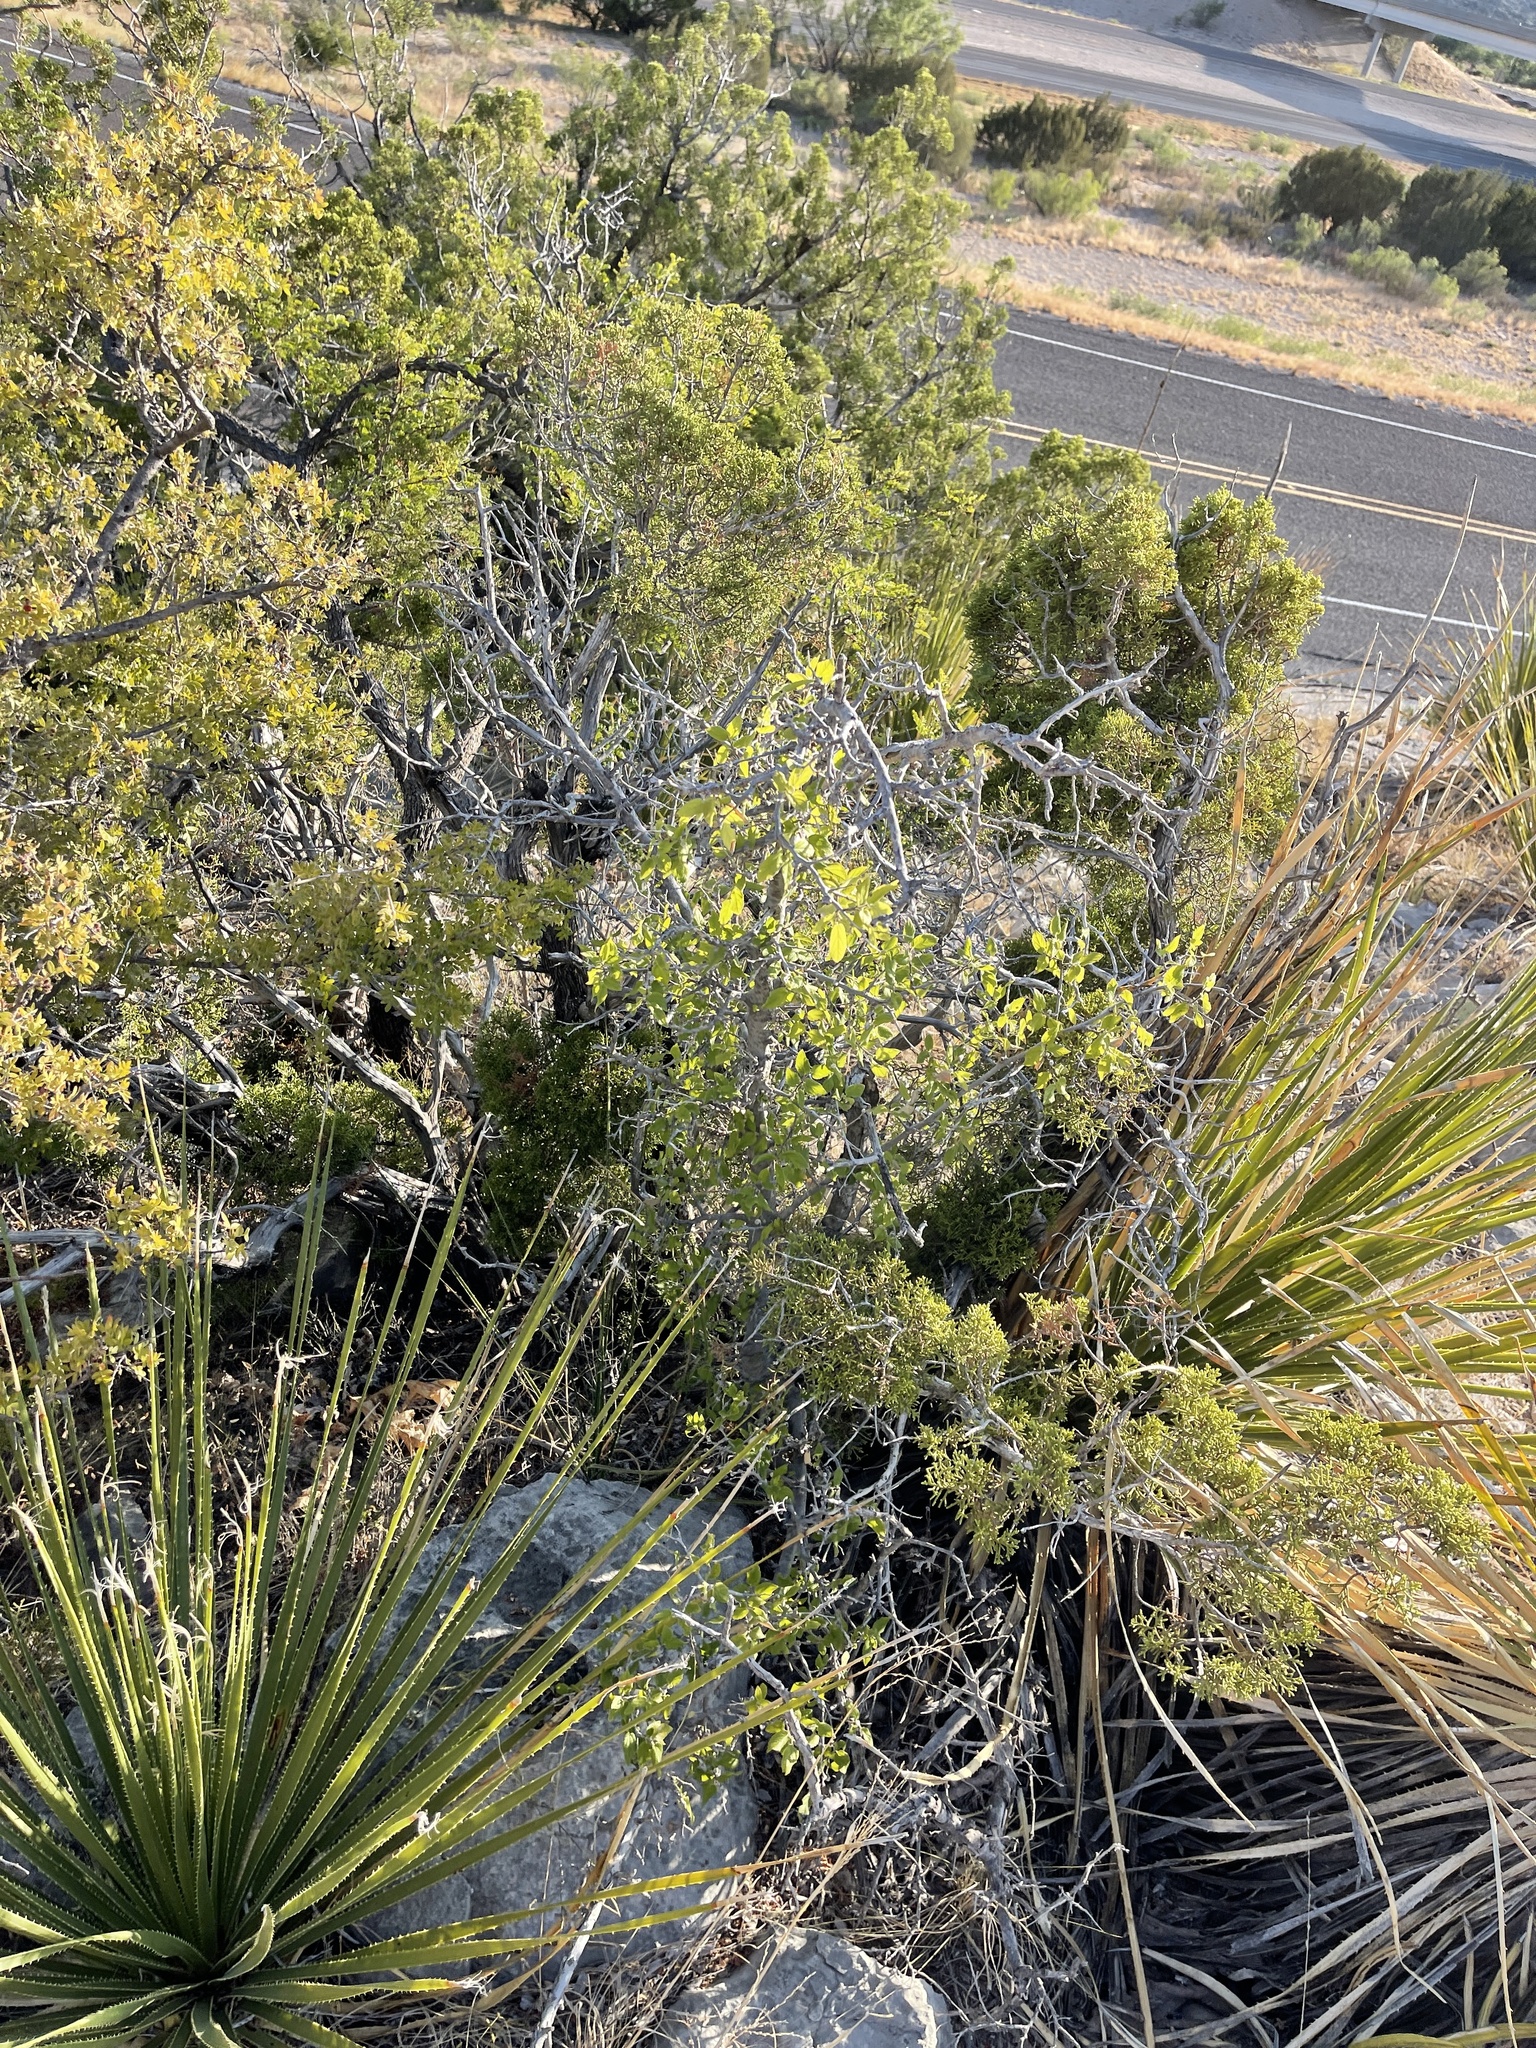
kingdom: Plantae
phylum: Tracheophyta
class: Magnoliopsida
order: Rosales
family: Cannabaceae
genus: Celtis
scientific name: Celtis reticulata
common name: Netleaf hackberry
